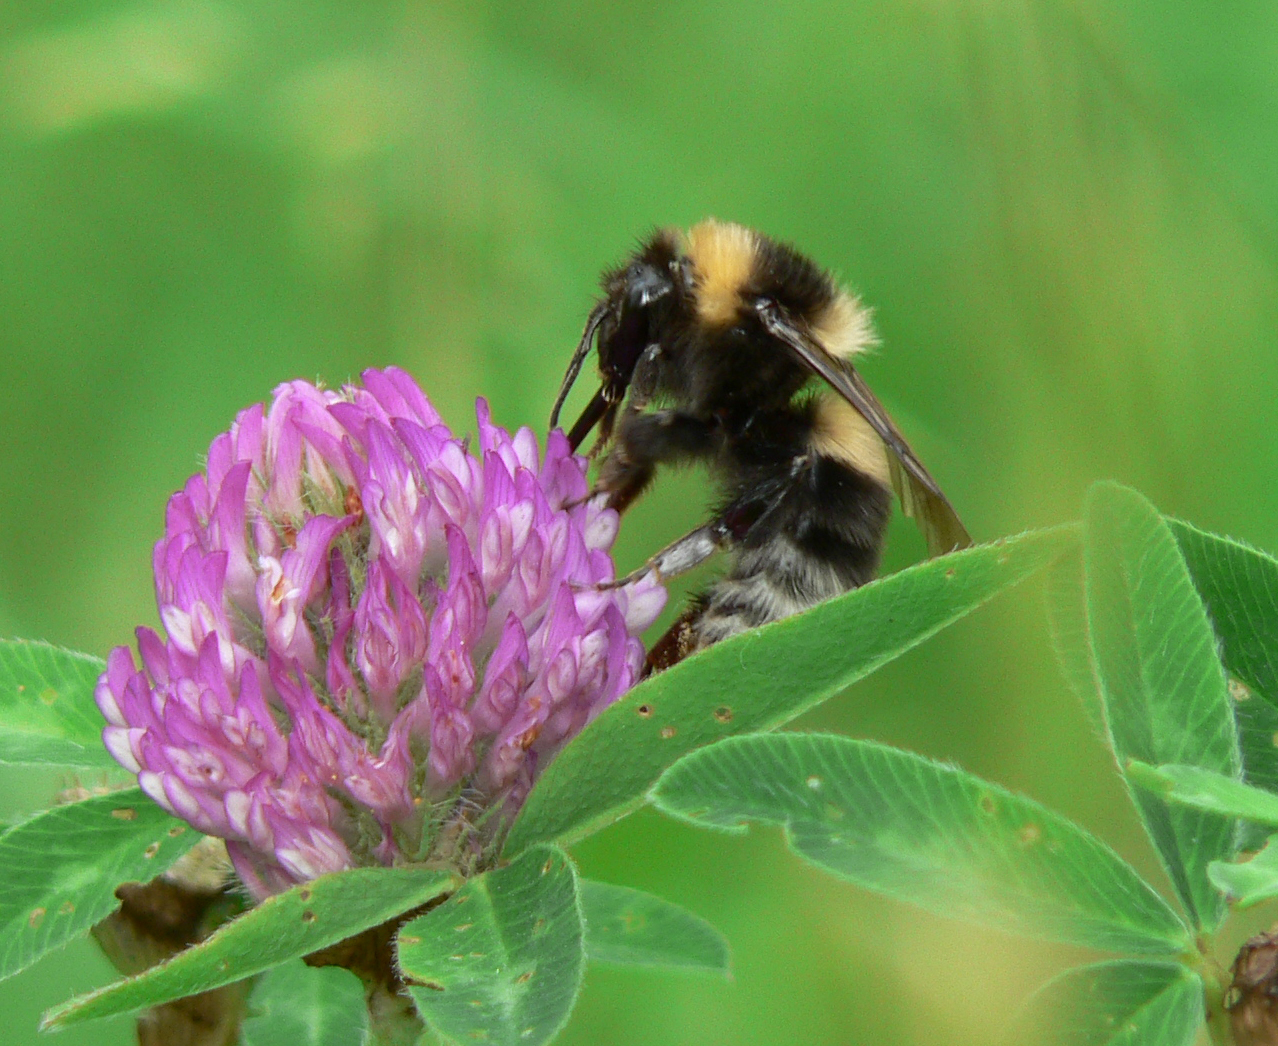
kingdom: Animalia
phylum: Arthropoda
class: Insecta
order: Hymenoptera
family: Apidae
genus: Bombus
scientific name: Bombus hortorum
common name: Garden bumblebee
